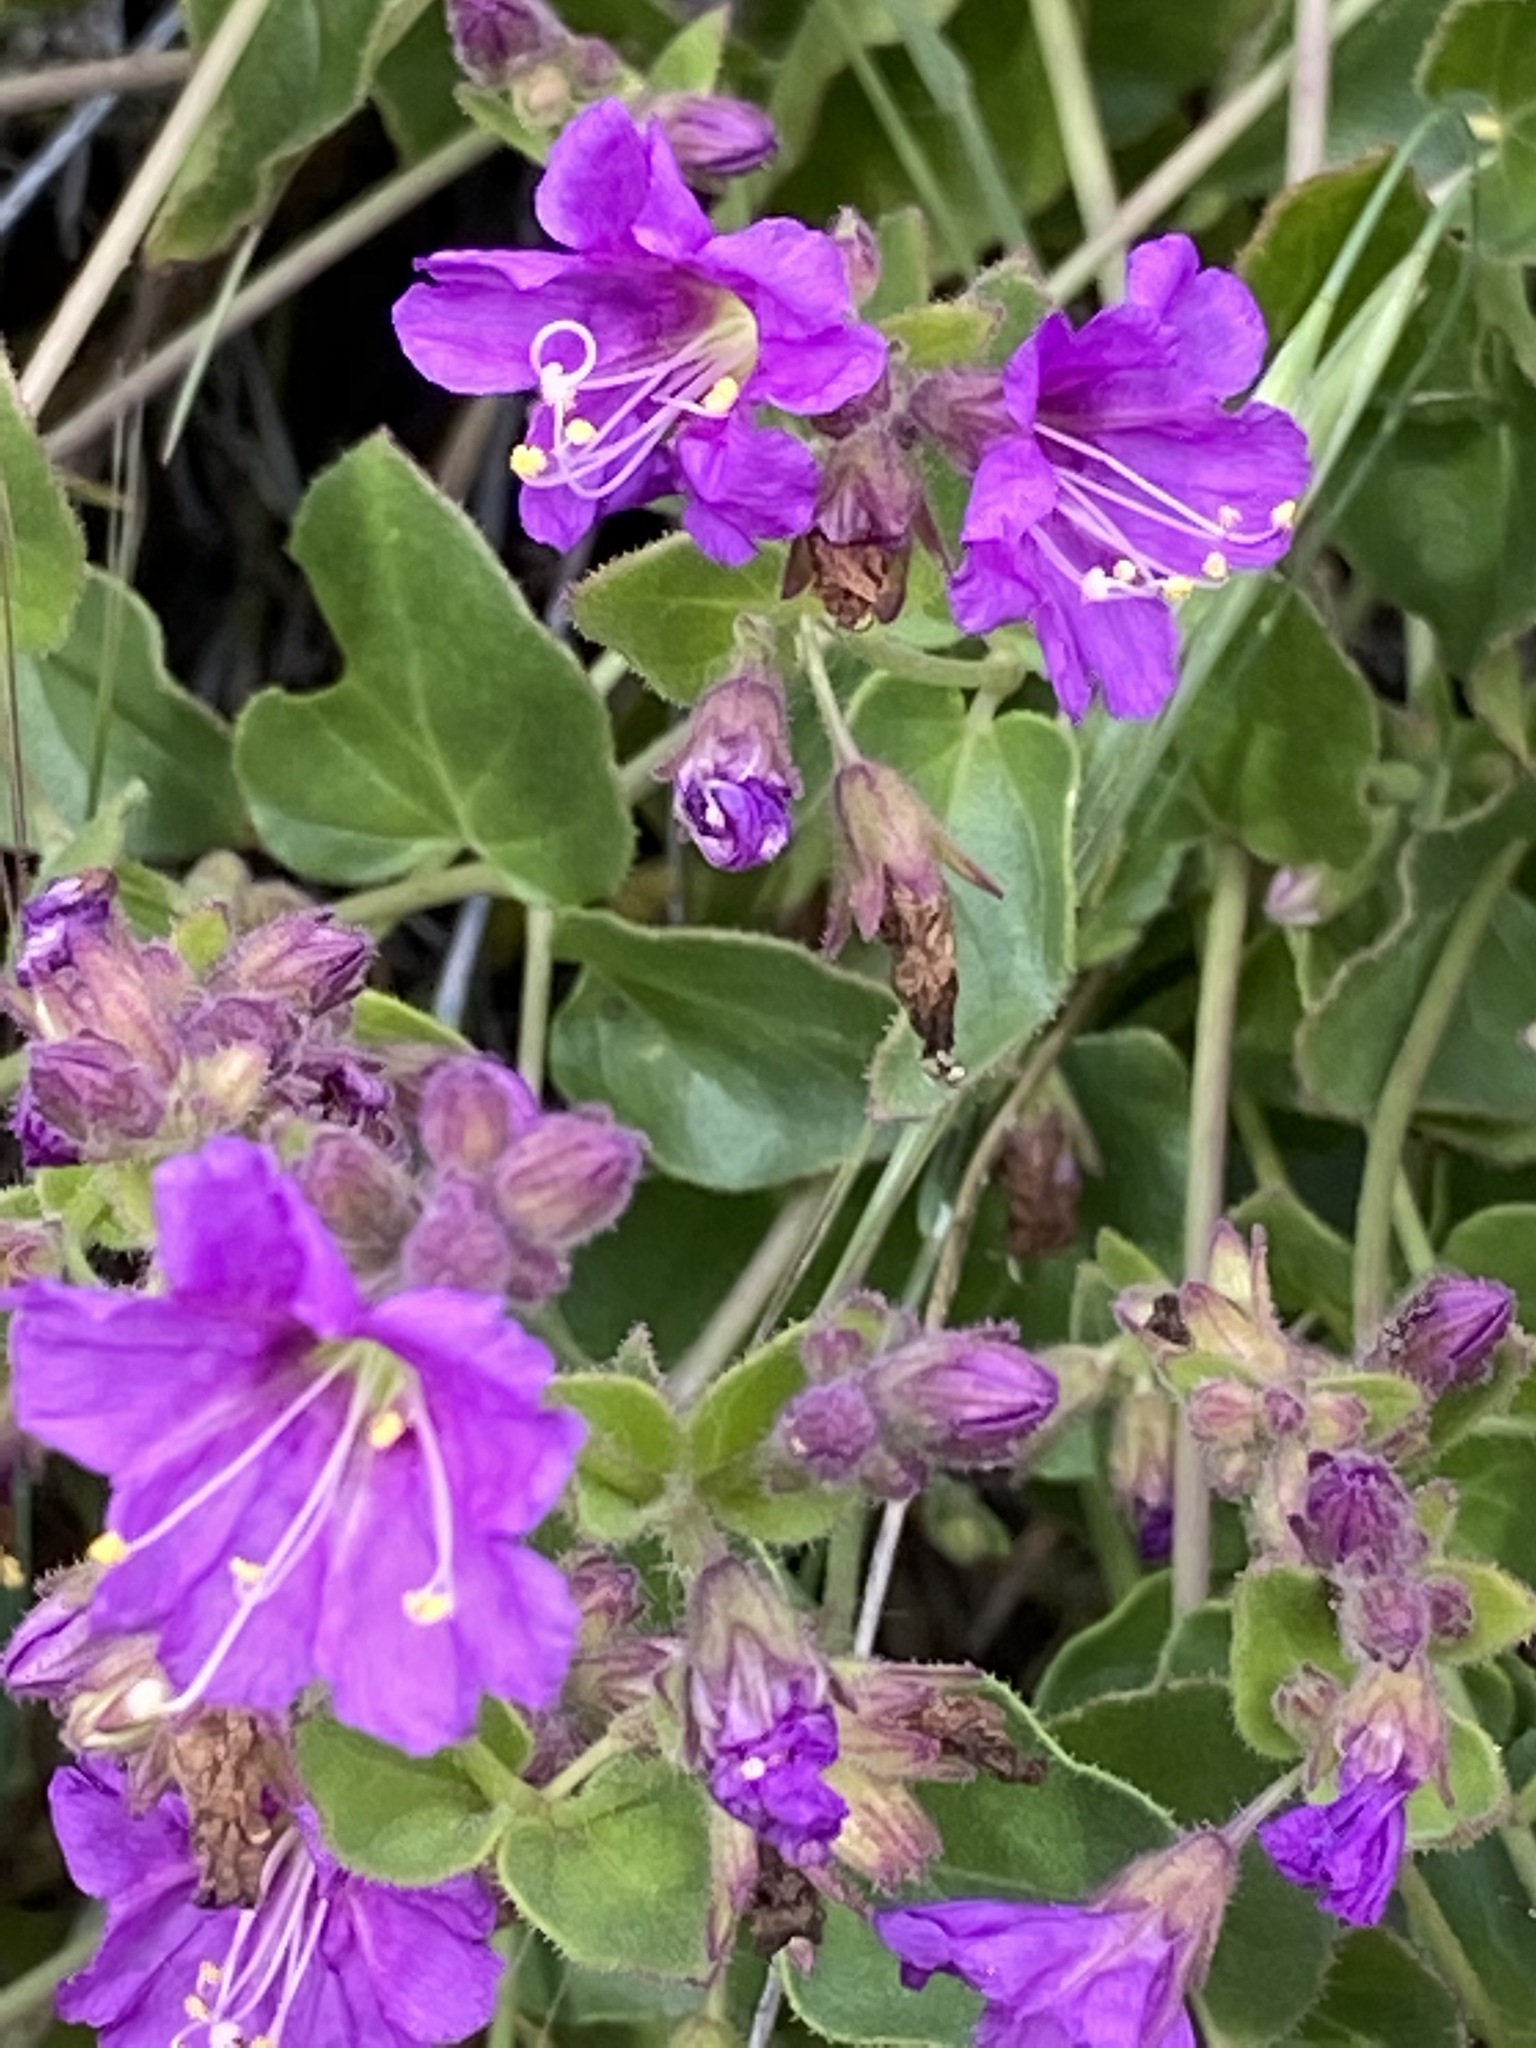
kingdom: Plantae
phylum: Tracheophyta
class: Magnoliopsida
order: Caryophyllales
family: Nyctaginaceae
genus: Mirabilis
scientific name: Mirabilis laevis
